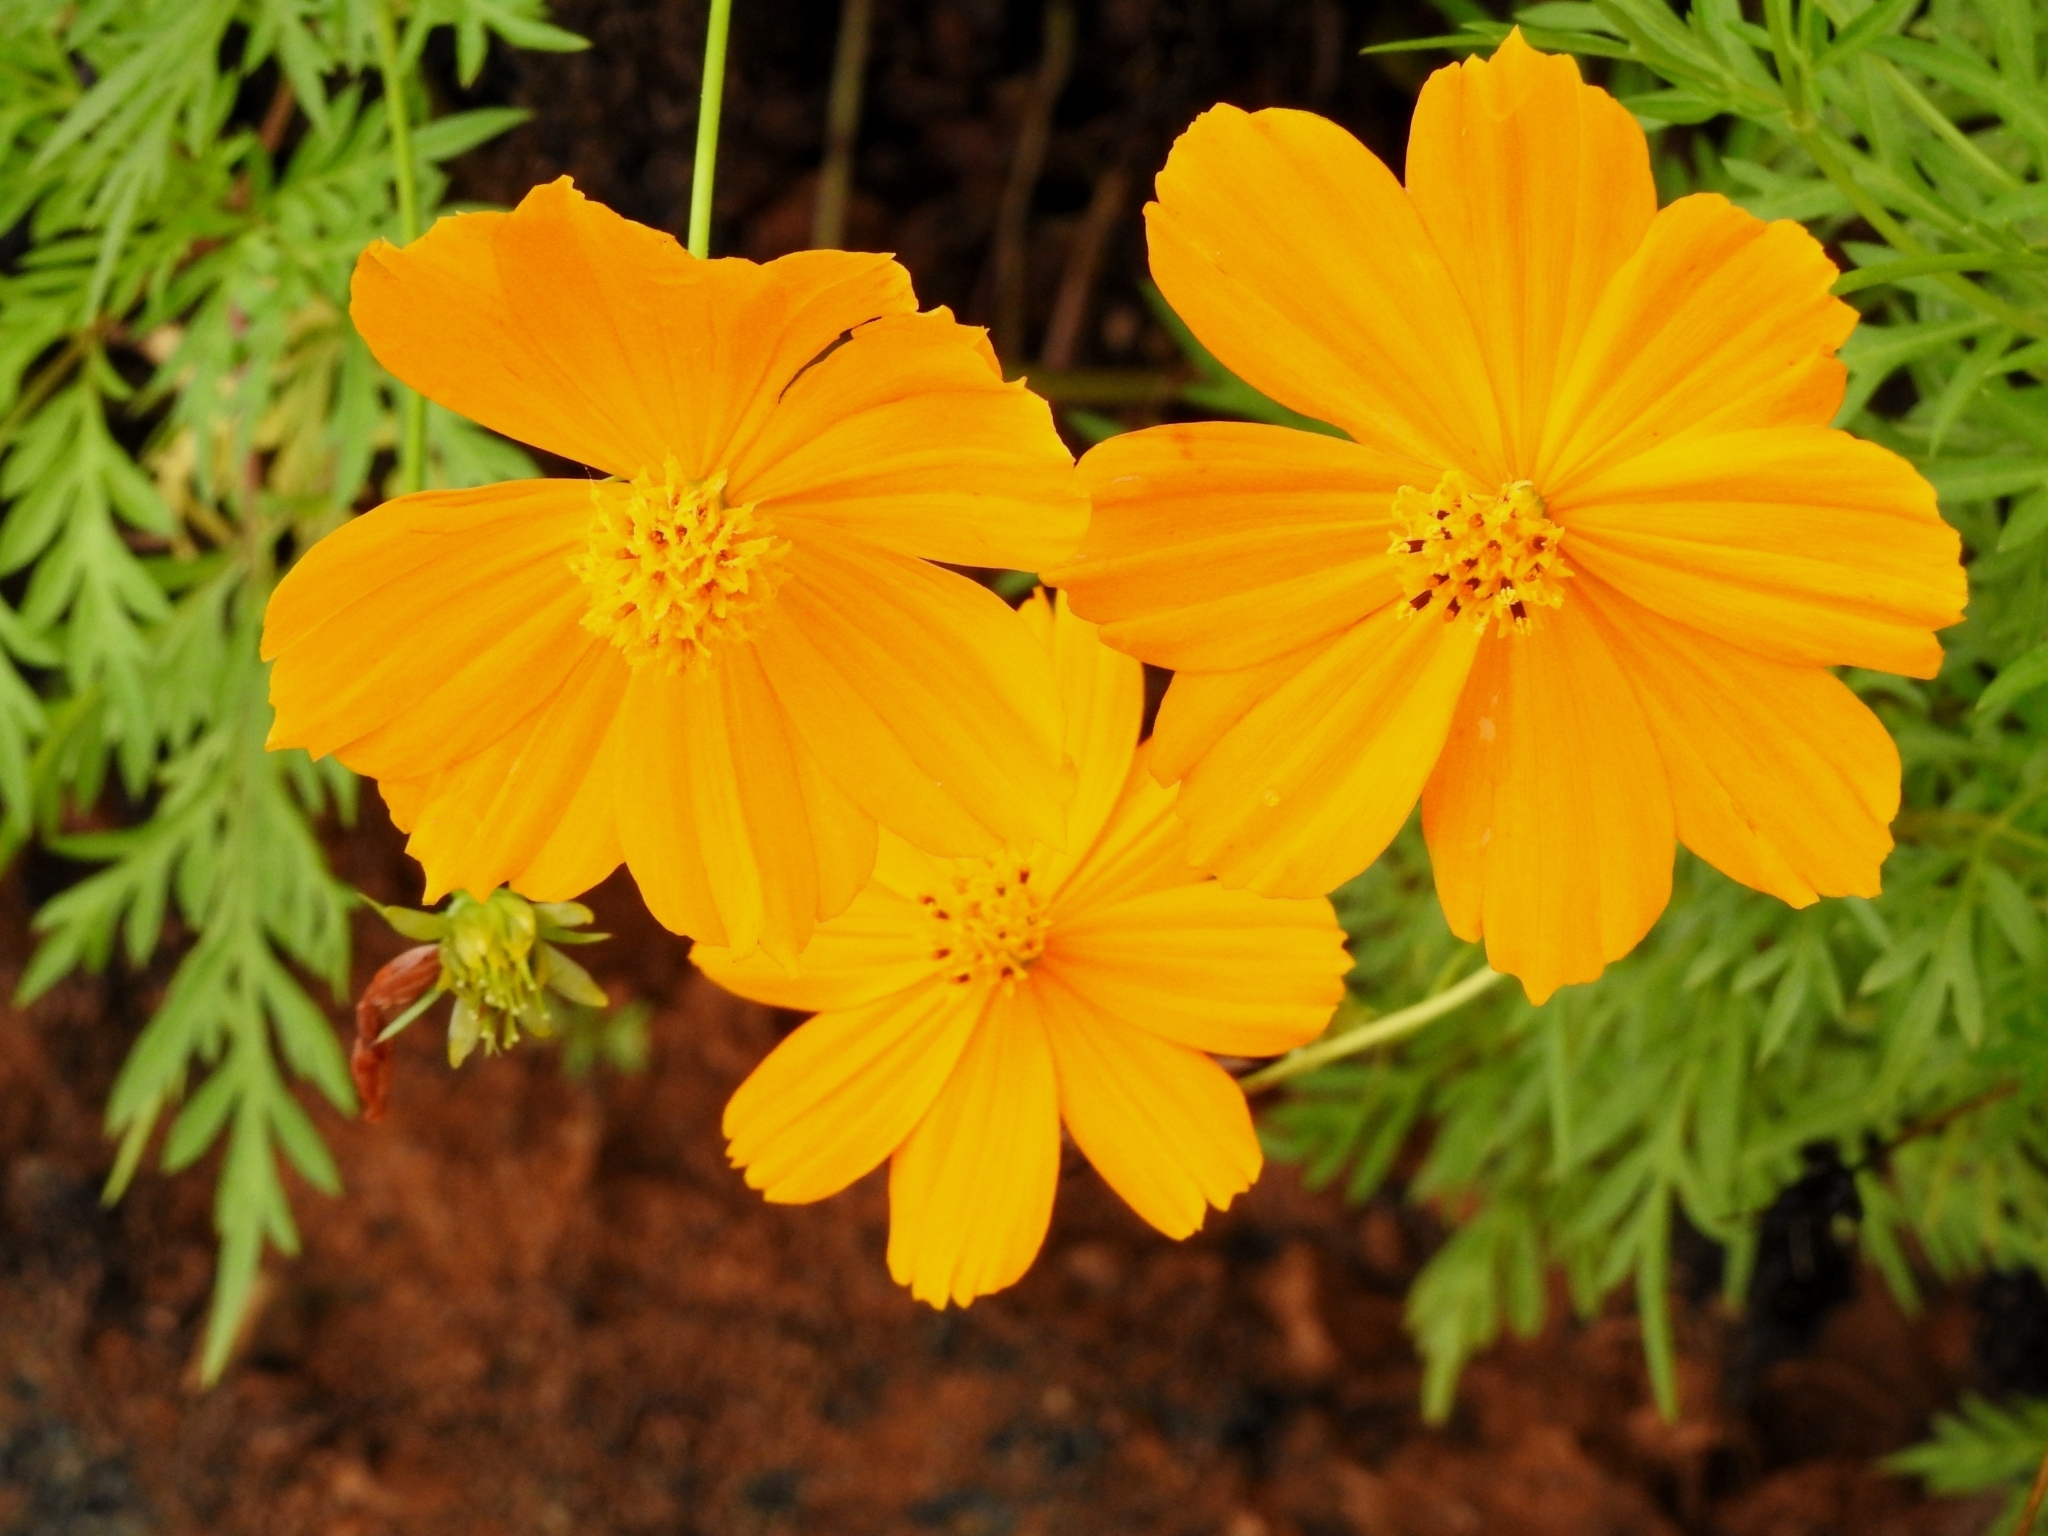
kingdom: Plantae
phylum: Tracheophyta
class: Magnoliopsida
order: Asterales
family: Asteraceae
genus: Cosmos
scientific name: Cosmos sulphureus
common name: Sulphur cosmos
